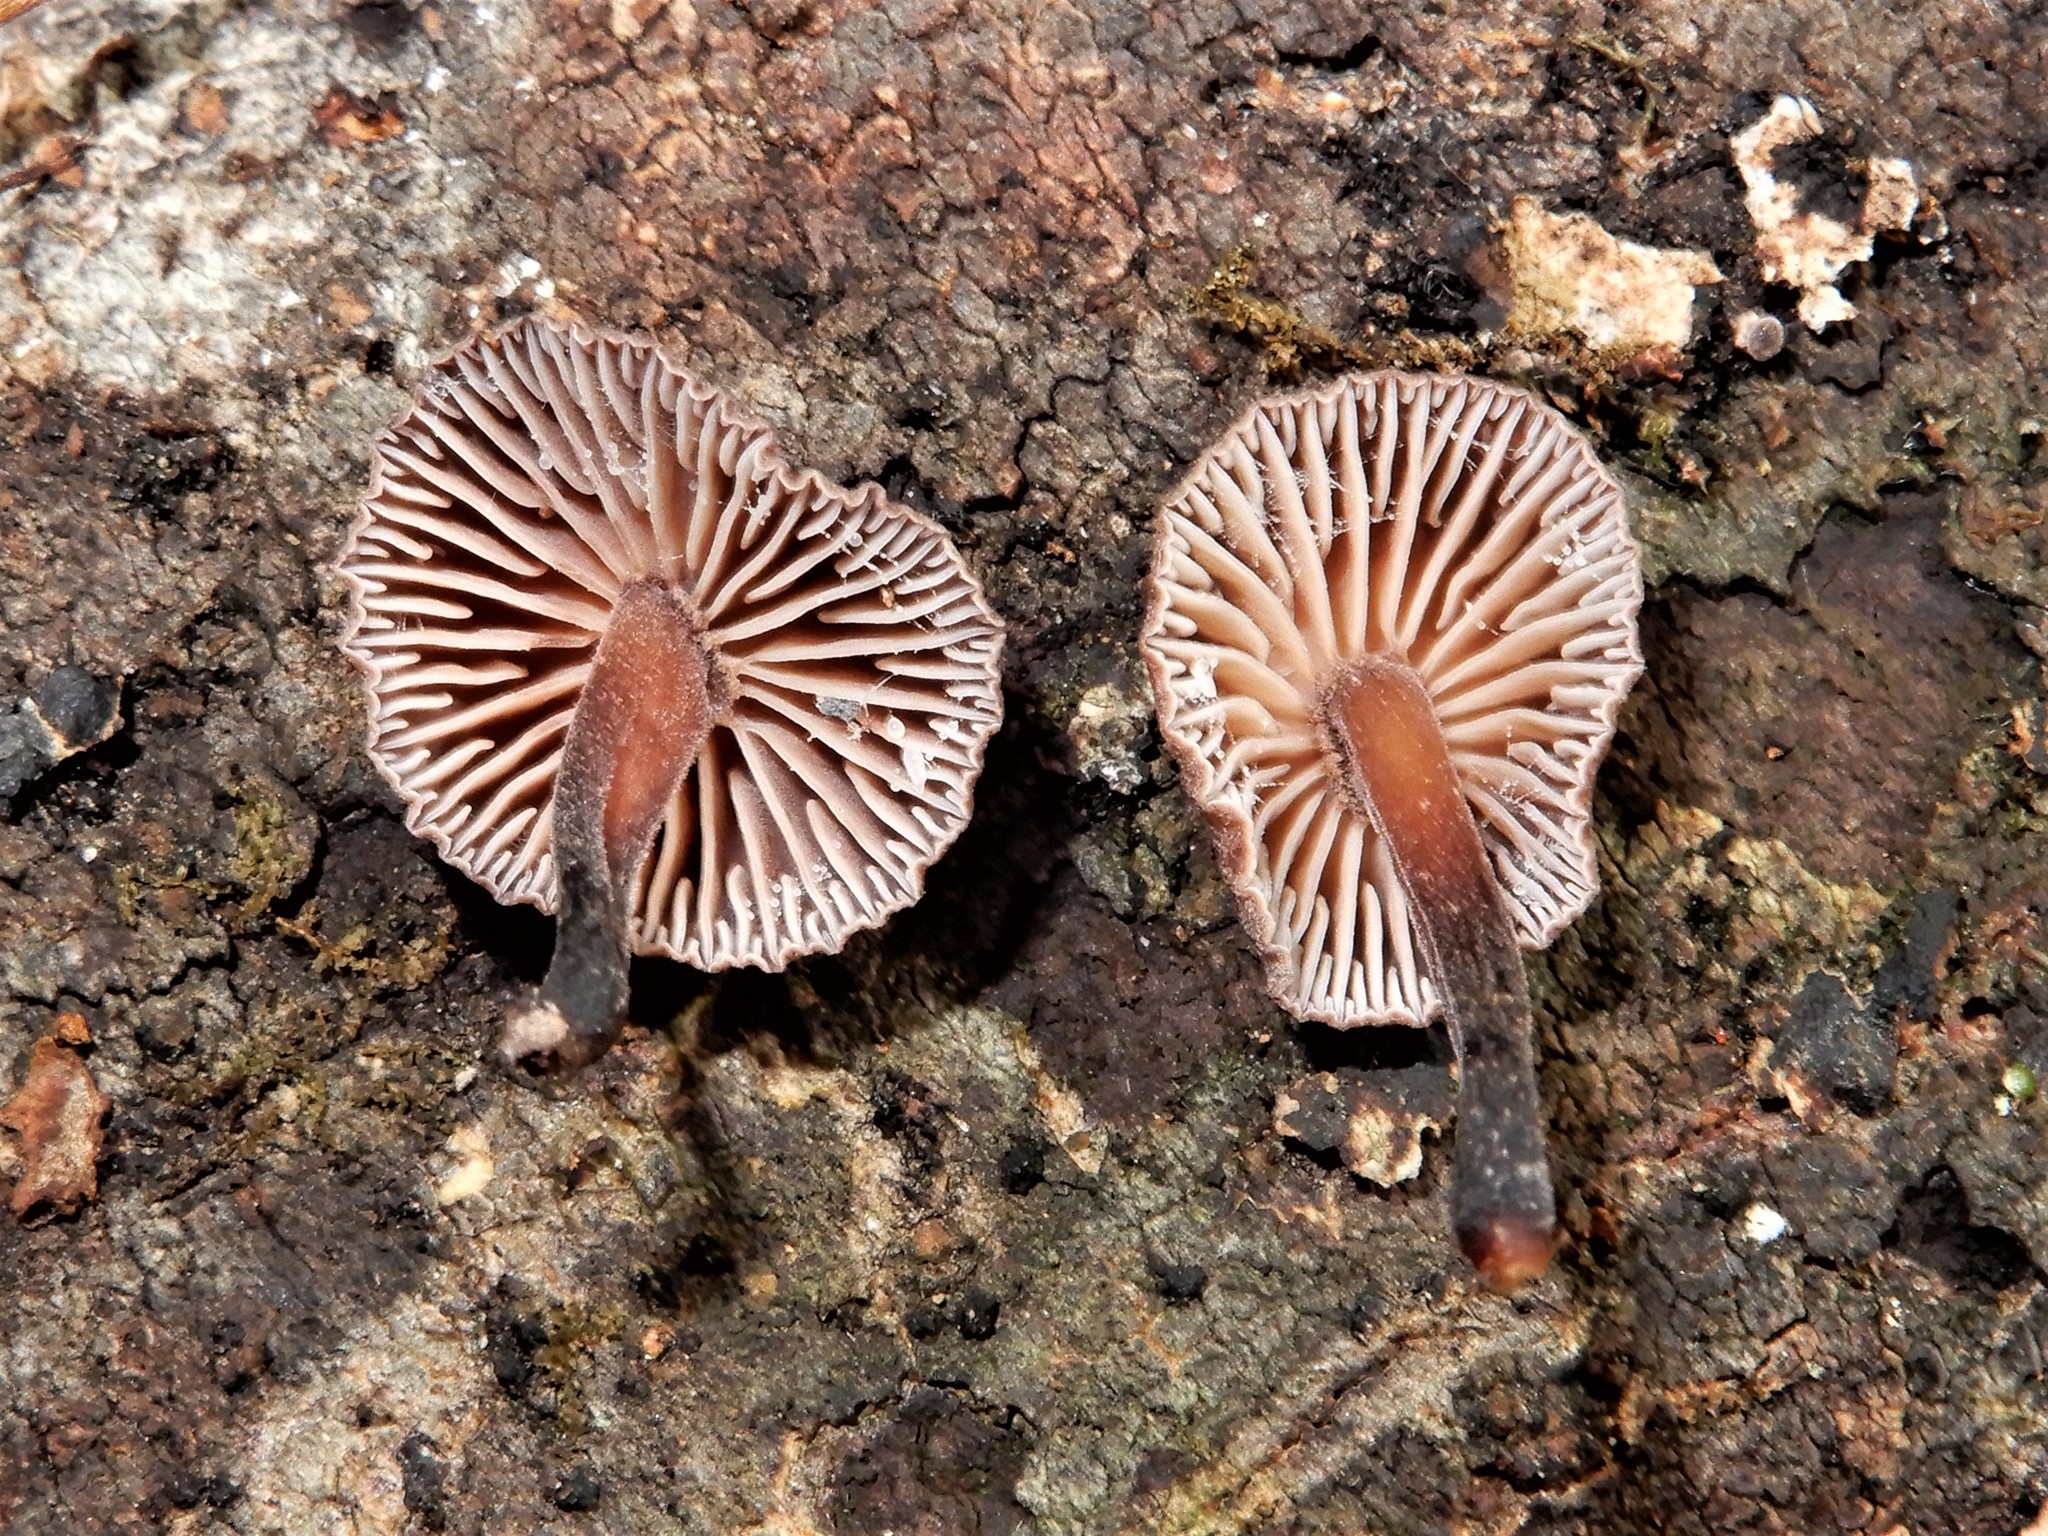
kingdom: Fungi
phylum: Basidiomycota
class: Agaricomycetes
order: Agaricales
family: Omphalotaceae
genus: Gymnopus
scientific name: Gymnopus ceraceicola
